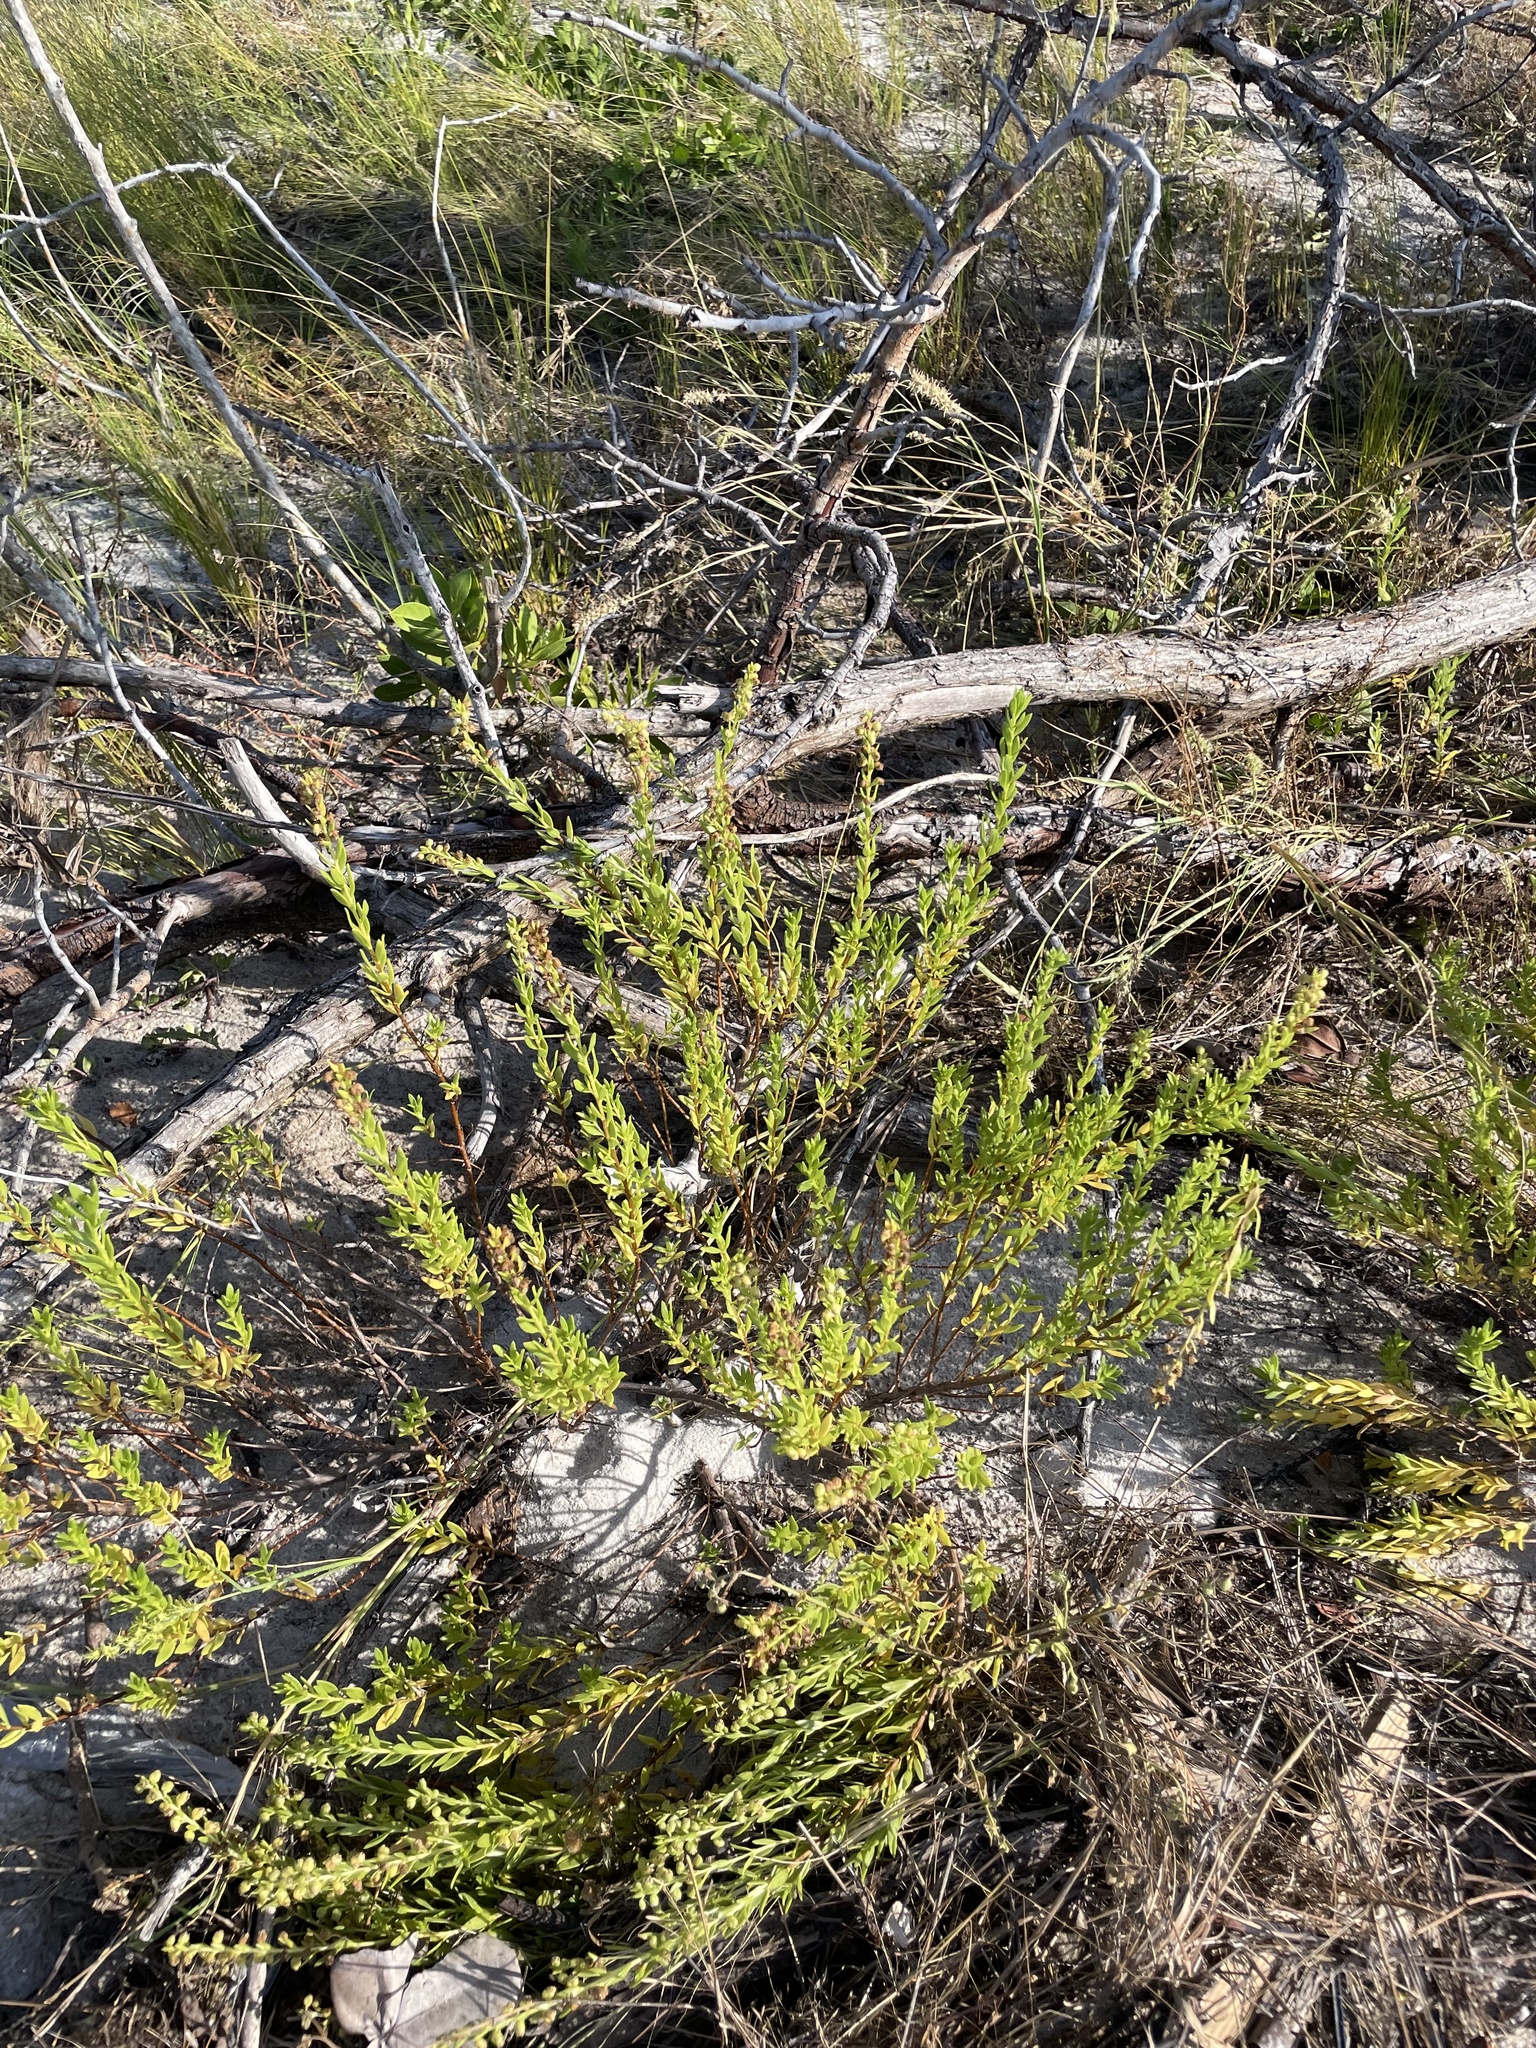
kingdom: Plantae
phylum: Tracheophyta
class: Magnoliopsida
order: Asterales
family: Asteraceae
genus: Iva
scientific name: Iva imbricata
